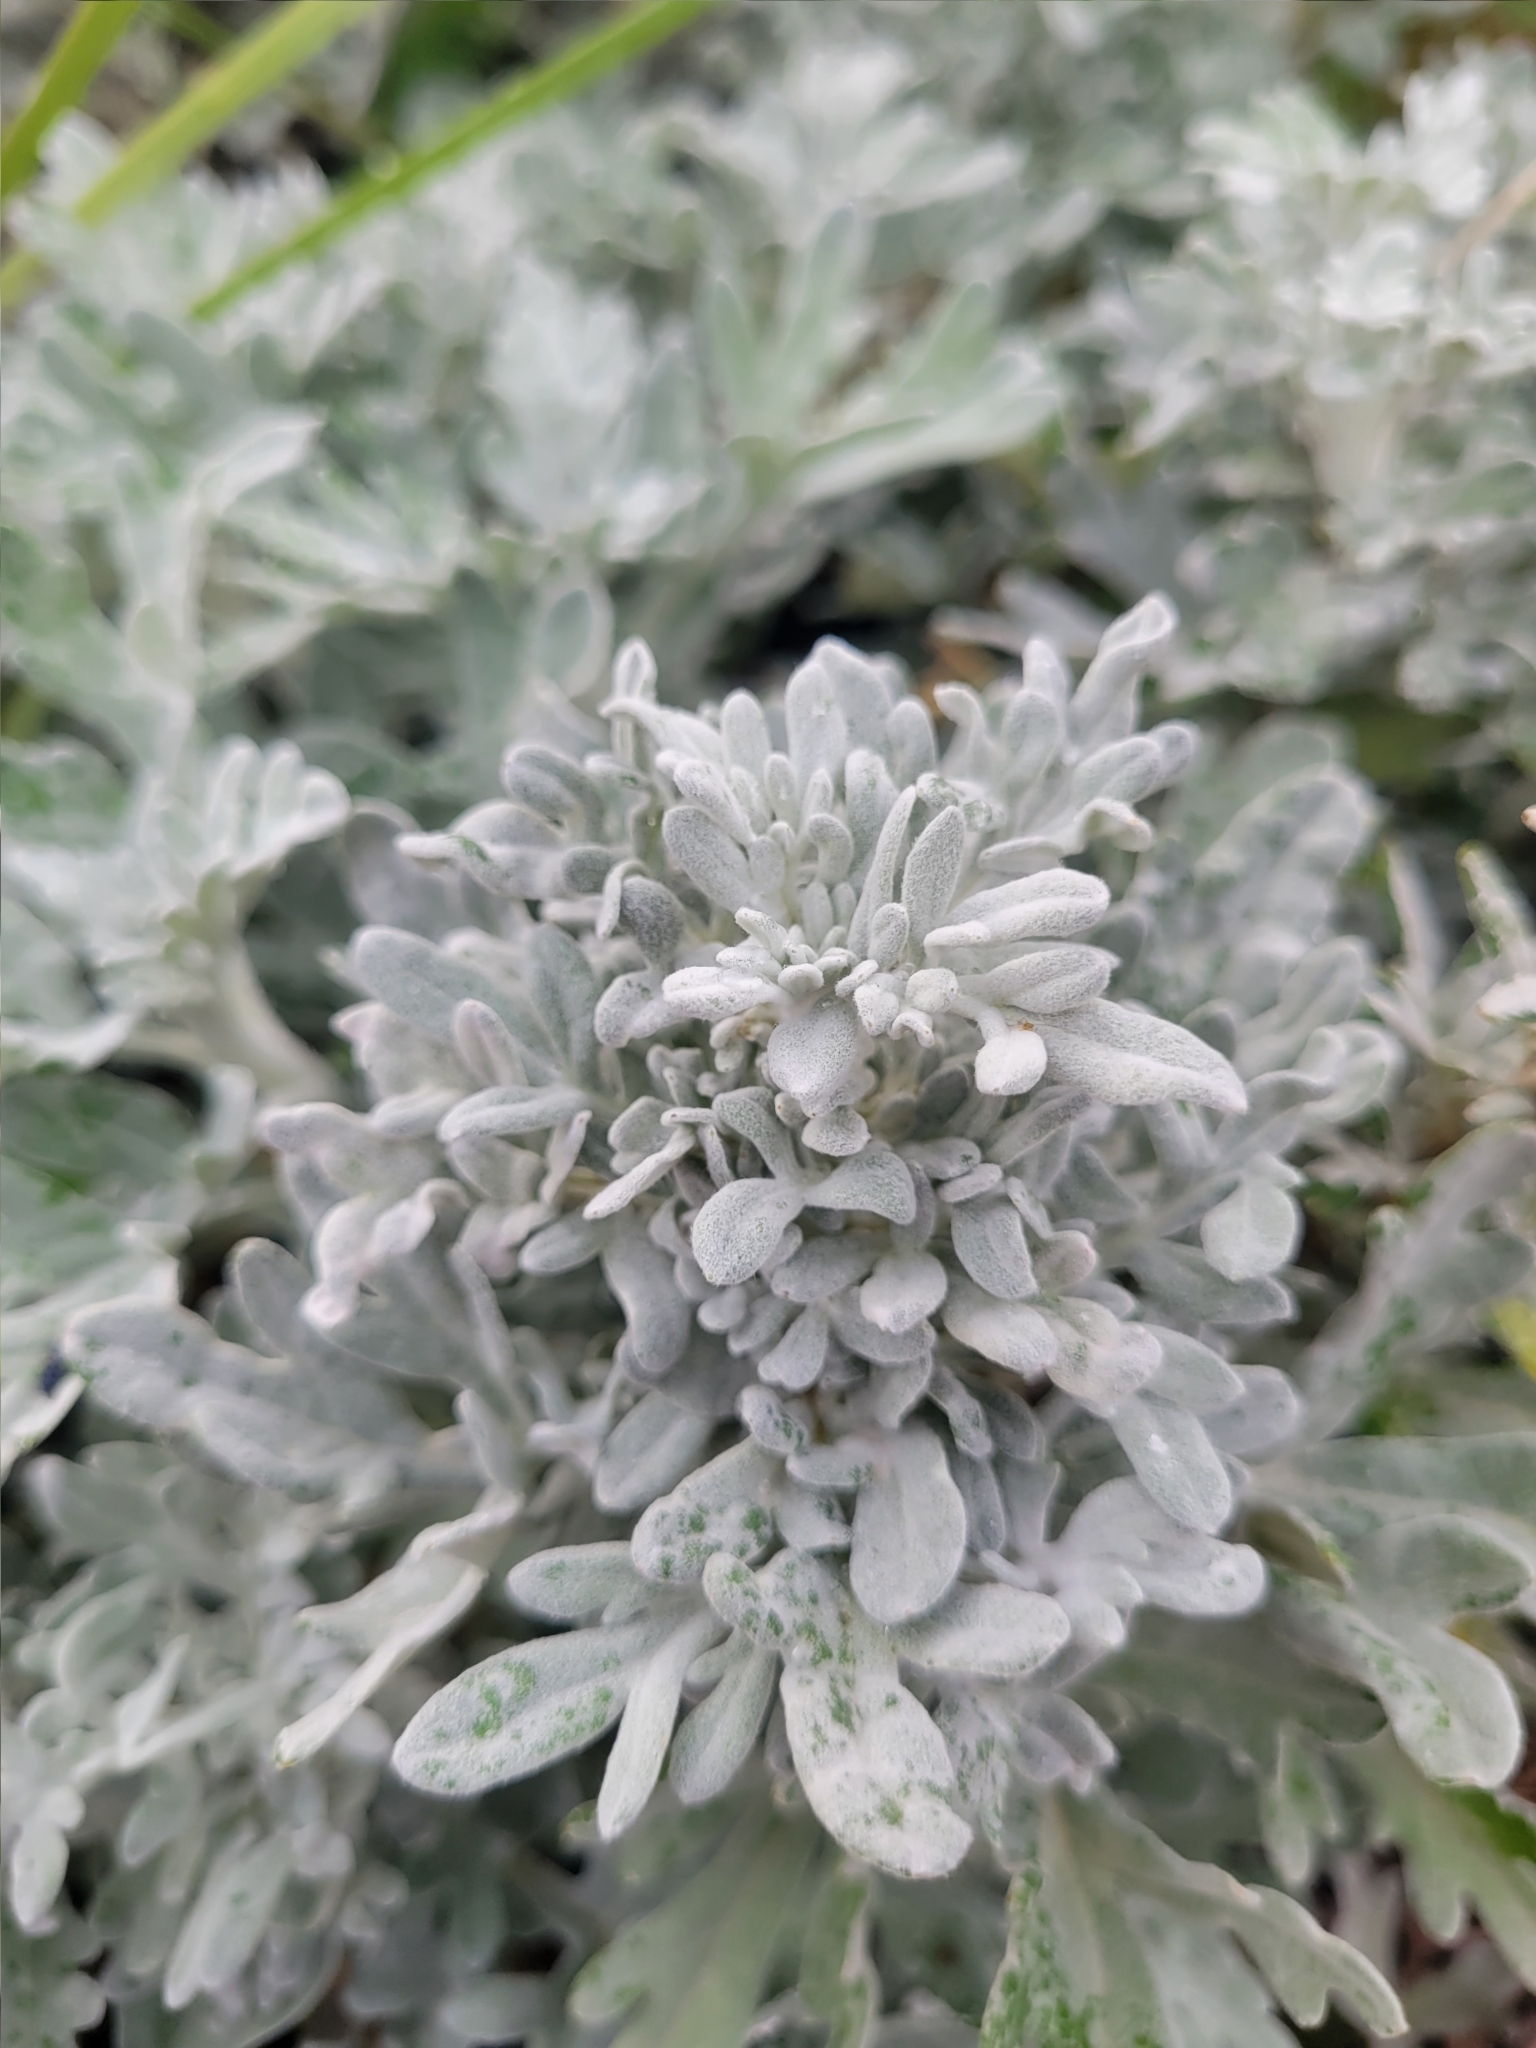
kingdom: Plantae
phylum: Tracheophyta
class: Magnoliopsida
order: Asterales
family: Asteraceae
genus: Artemisia
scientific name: Artemisia stelleriana
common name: Beach wormwood
